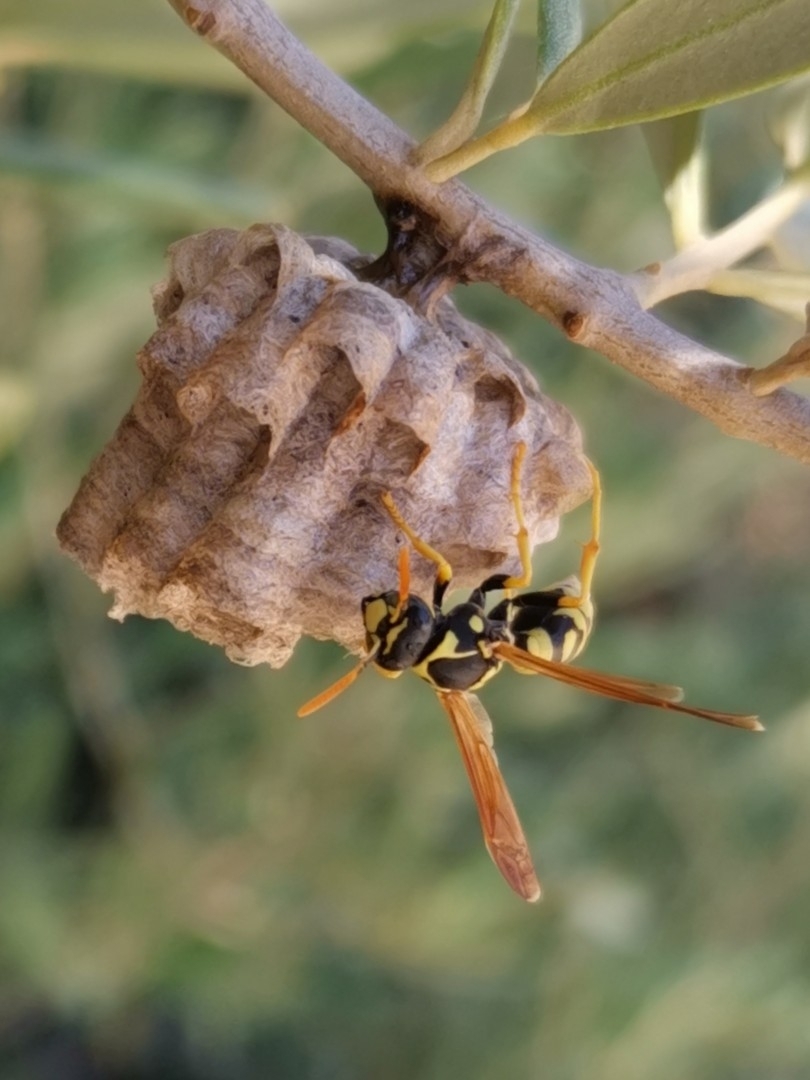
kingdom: Animalia
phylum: Arthropoda
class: Insecta
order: Hymenoptera
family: Eumenidae
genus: Polistes
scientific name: Polistes gallicus
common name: Paper wasp
